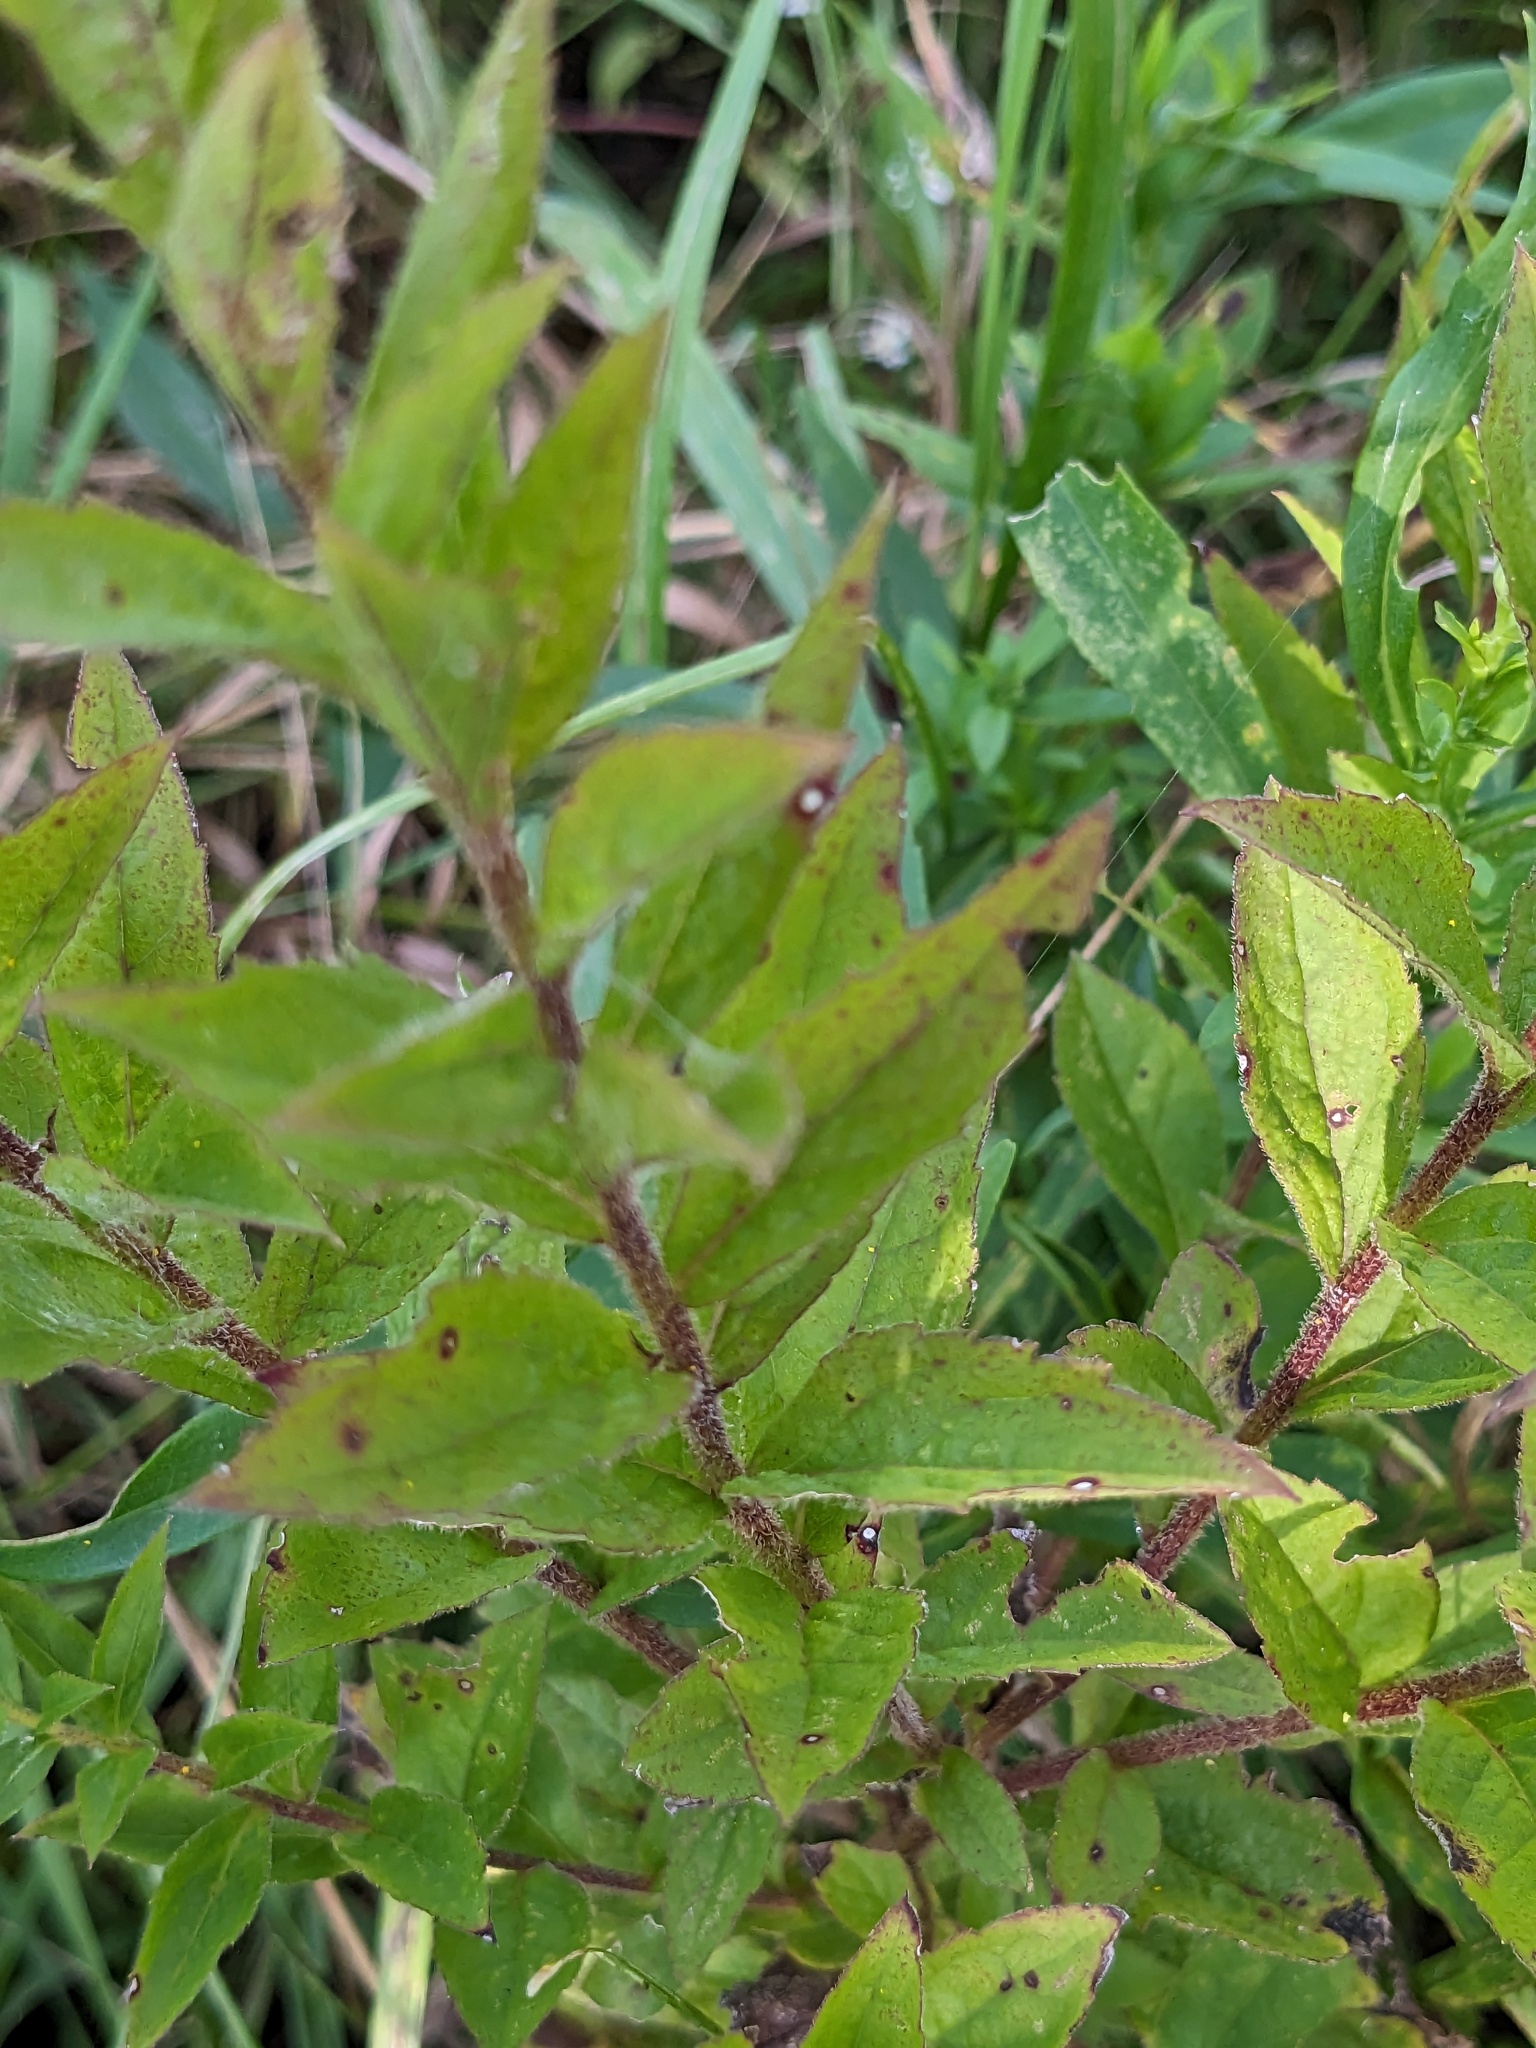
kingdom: Plantae
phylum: Tracheophyta
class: Magnoliopsida
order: Asterales
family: Asteraceae
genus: Solidago
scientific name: Solidago rugosa
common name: Rough-stemmed goldenrod
